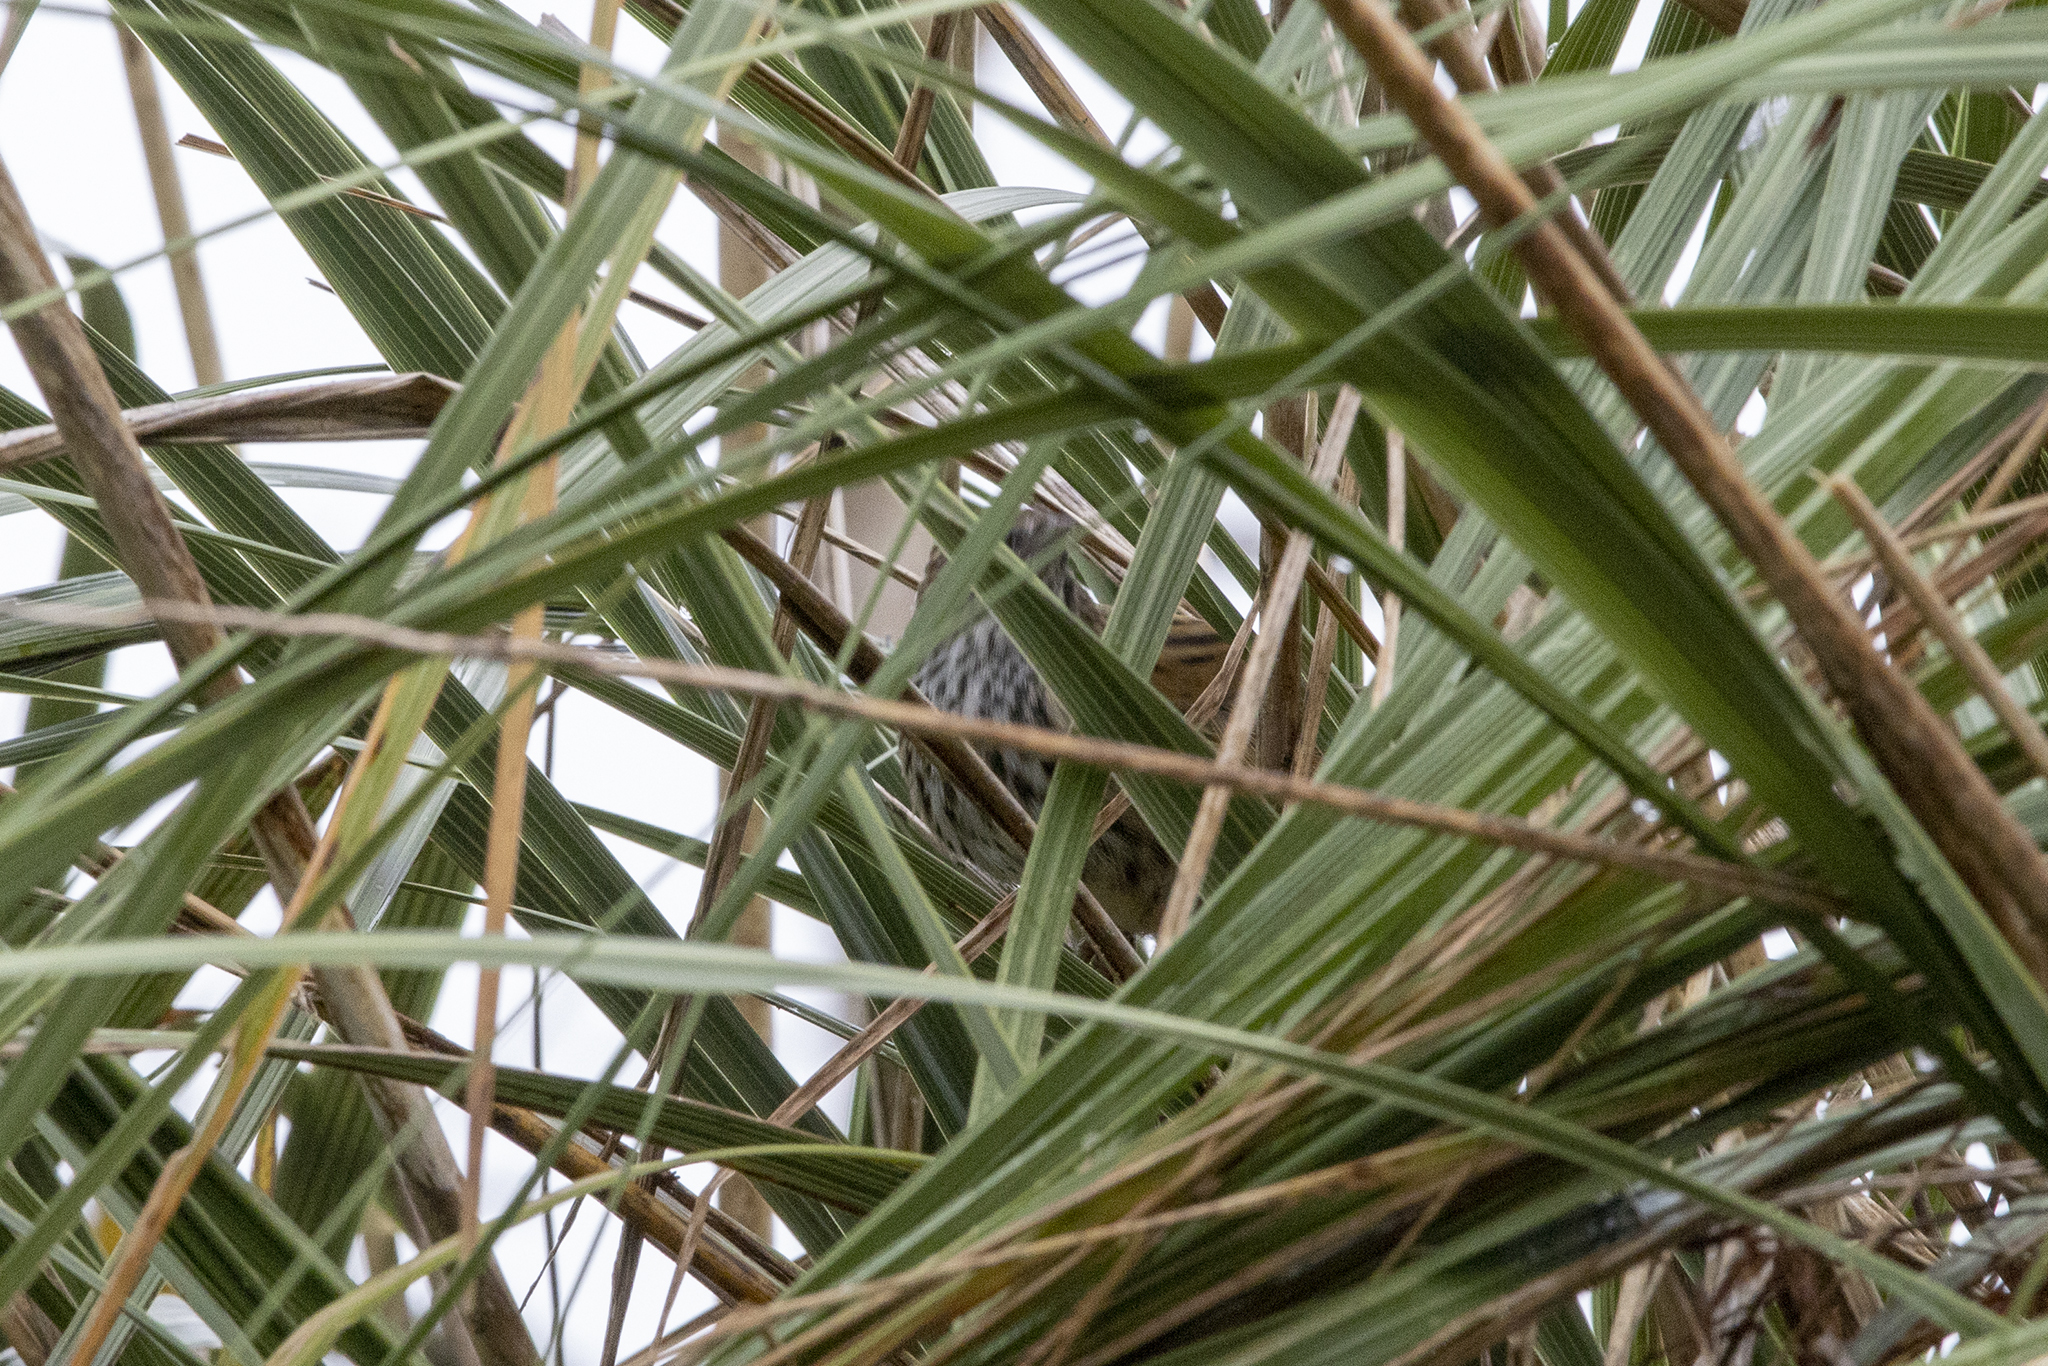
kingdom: Animalia
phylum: Chordata
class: Aves
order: Passeriformes
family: Locustellidae
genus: Poodytes
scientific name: Poodytes punctatus
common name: New zealand fernbird
